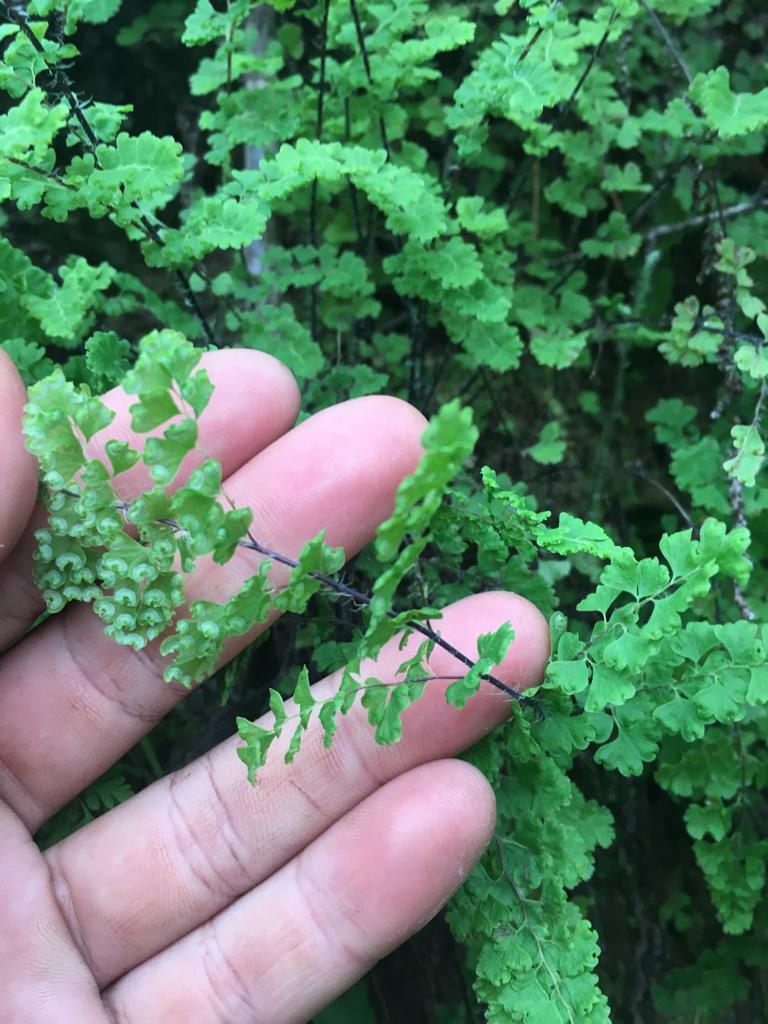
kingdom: Plantae
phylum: Tracheophyta
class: Polypodiopsida
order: Polypodiales
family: Pteridaceae
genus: Adiantum
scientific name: Adiantum excisum
